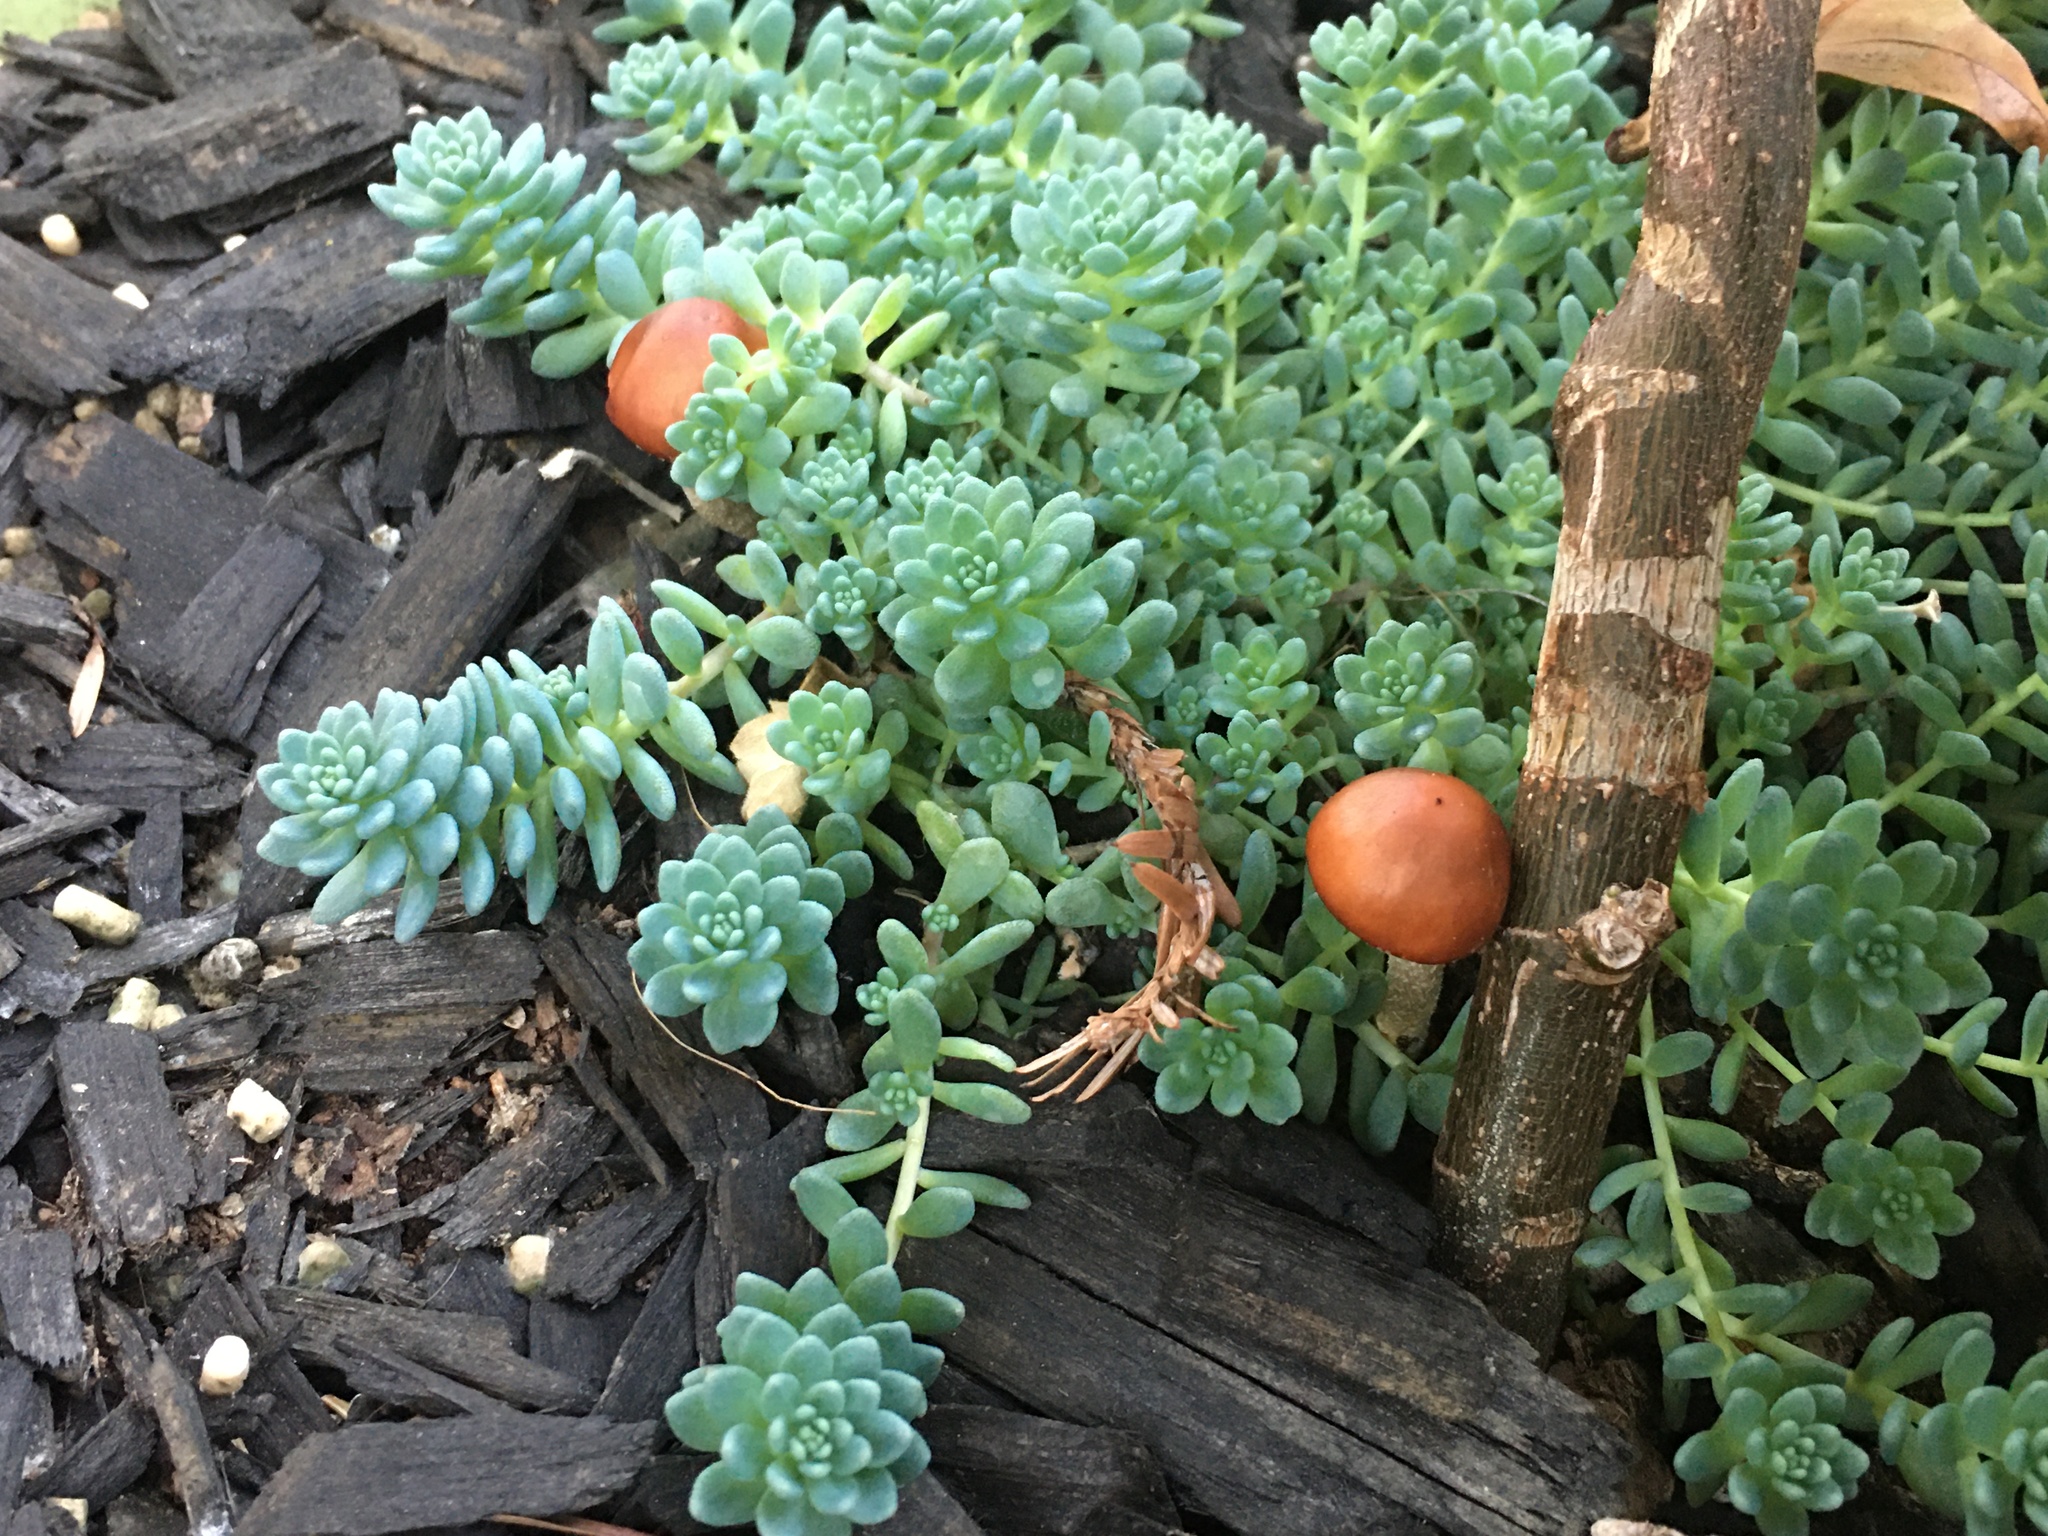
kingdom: Fungi
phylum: Basidiomycota
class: Agaricomycetes
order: Agaricales
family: Strophariaceae
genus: Leratiomyces
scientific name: Leratiomyces ceres
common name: Redlead roundhead
